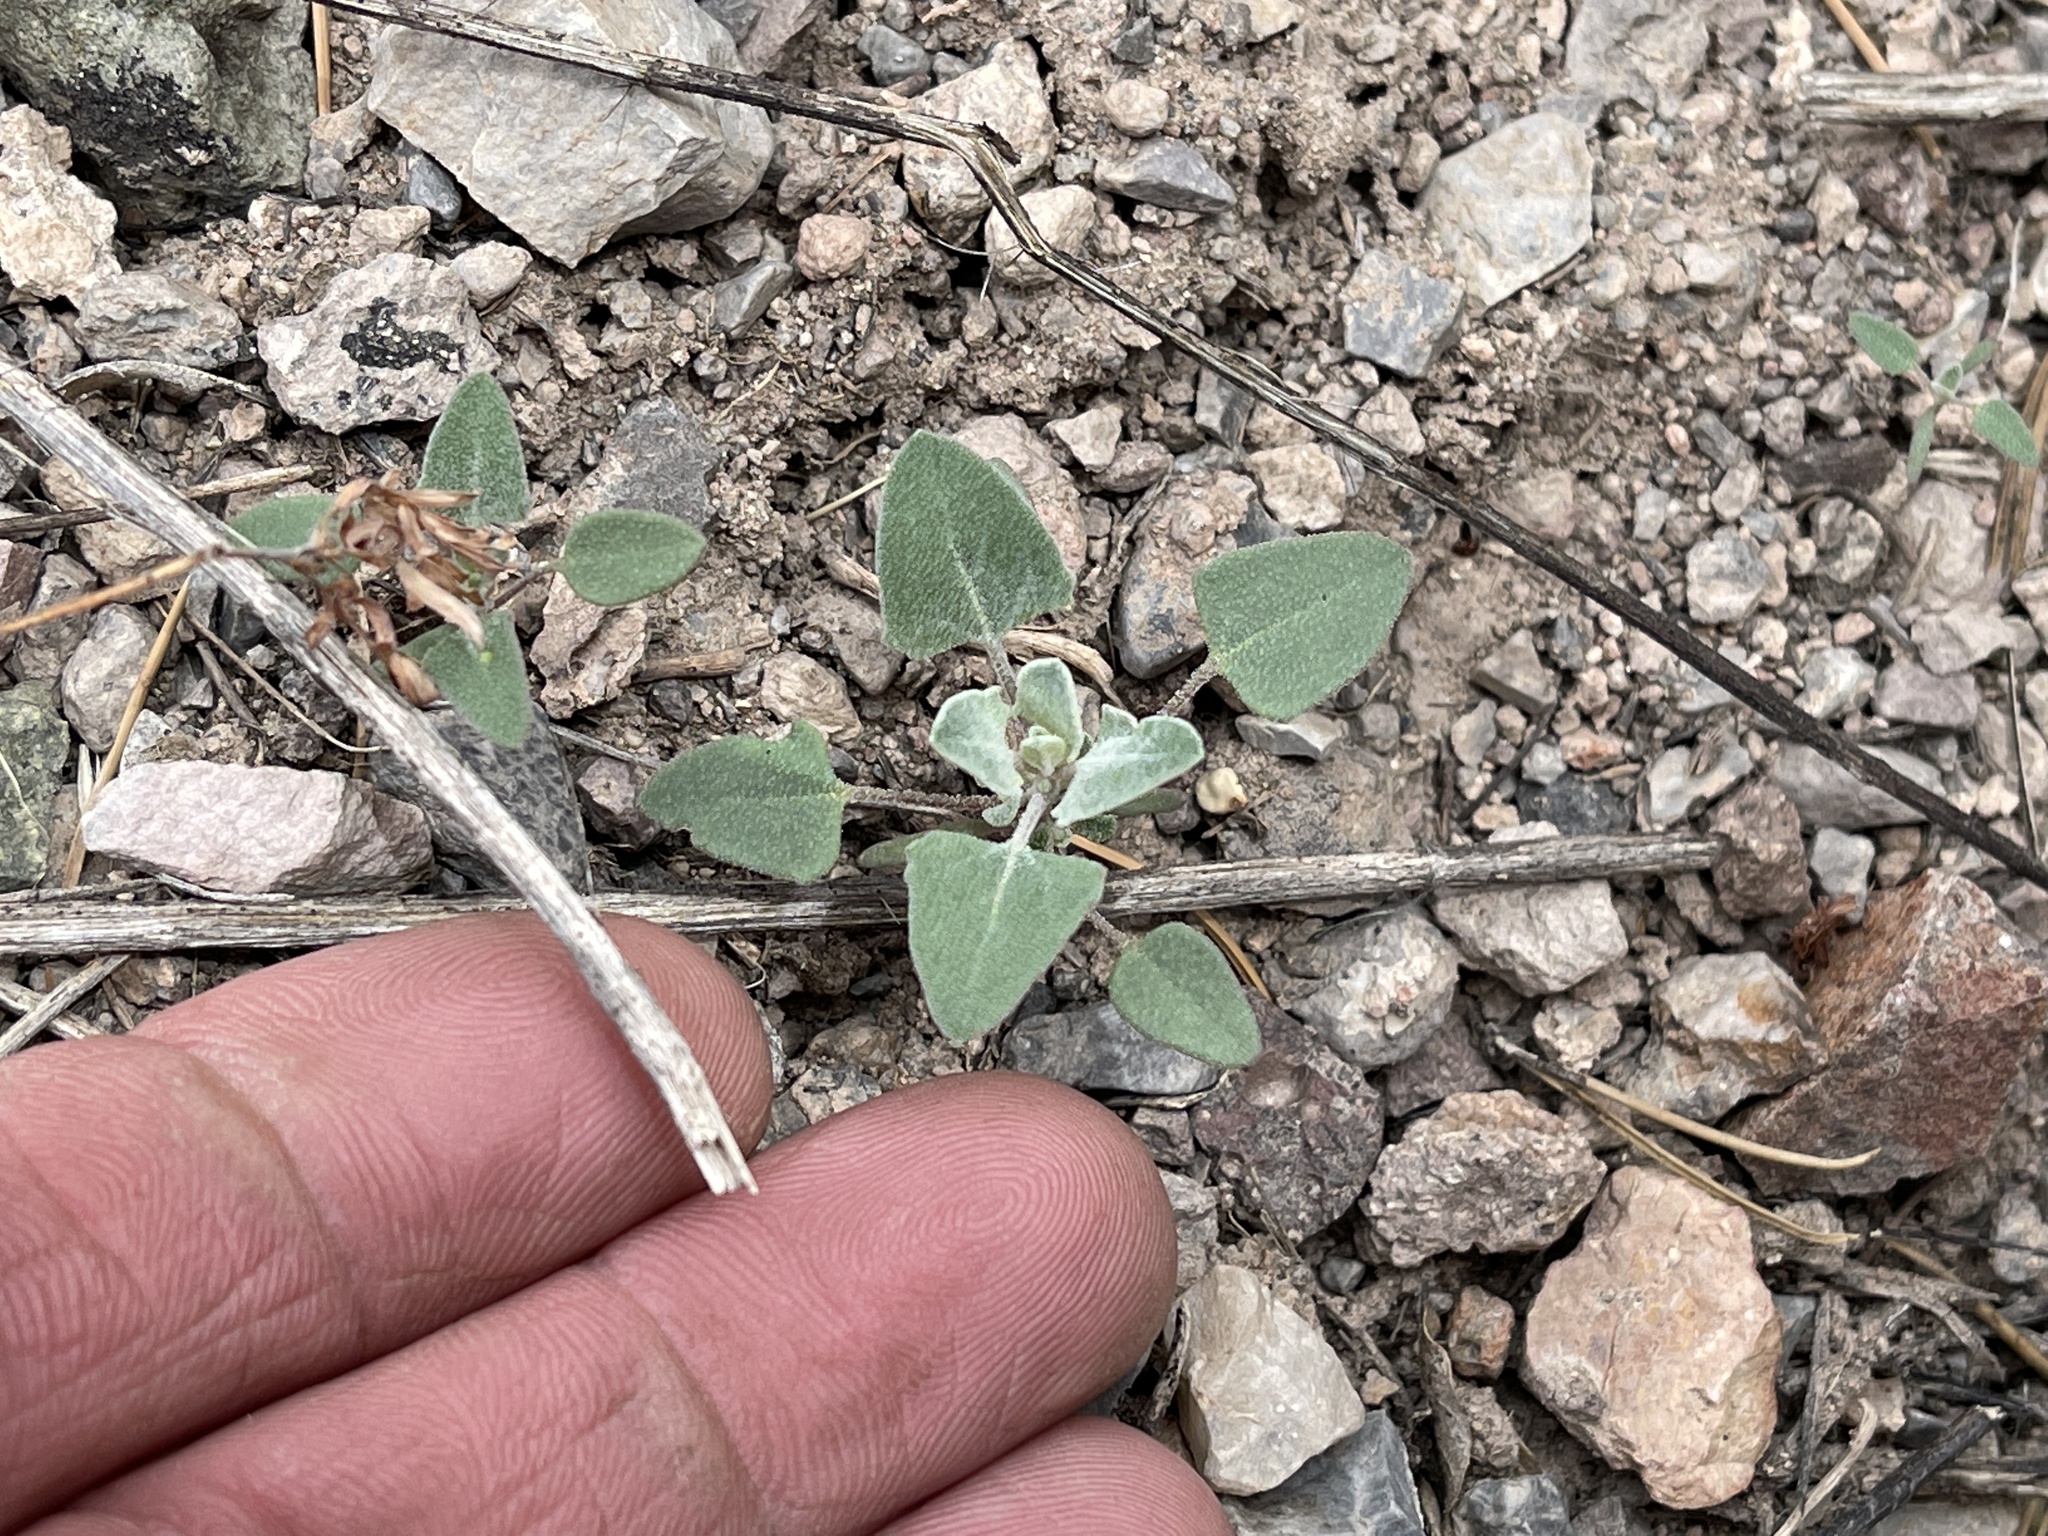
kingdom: Plantae
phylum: Tracheophyta
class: Magnoliopsida
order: Caryophyllales
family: Amaranthaceae
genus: Chenopodium
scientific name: Chenopodium album
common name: Fat-hen
